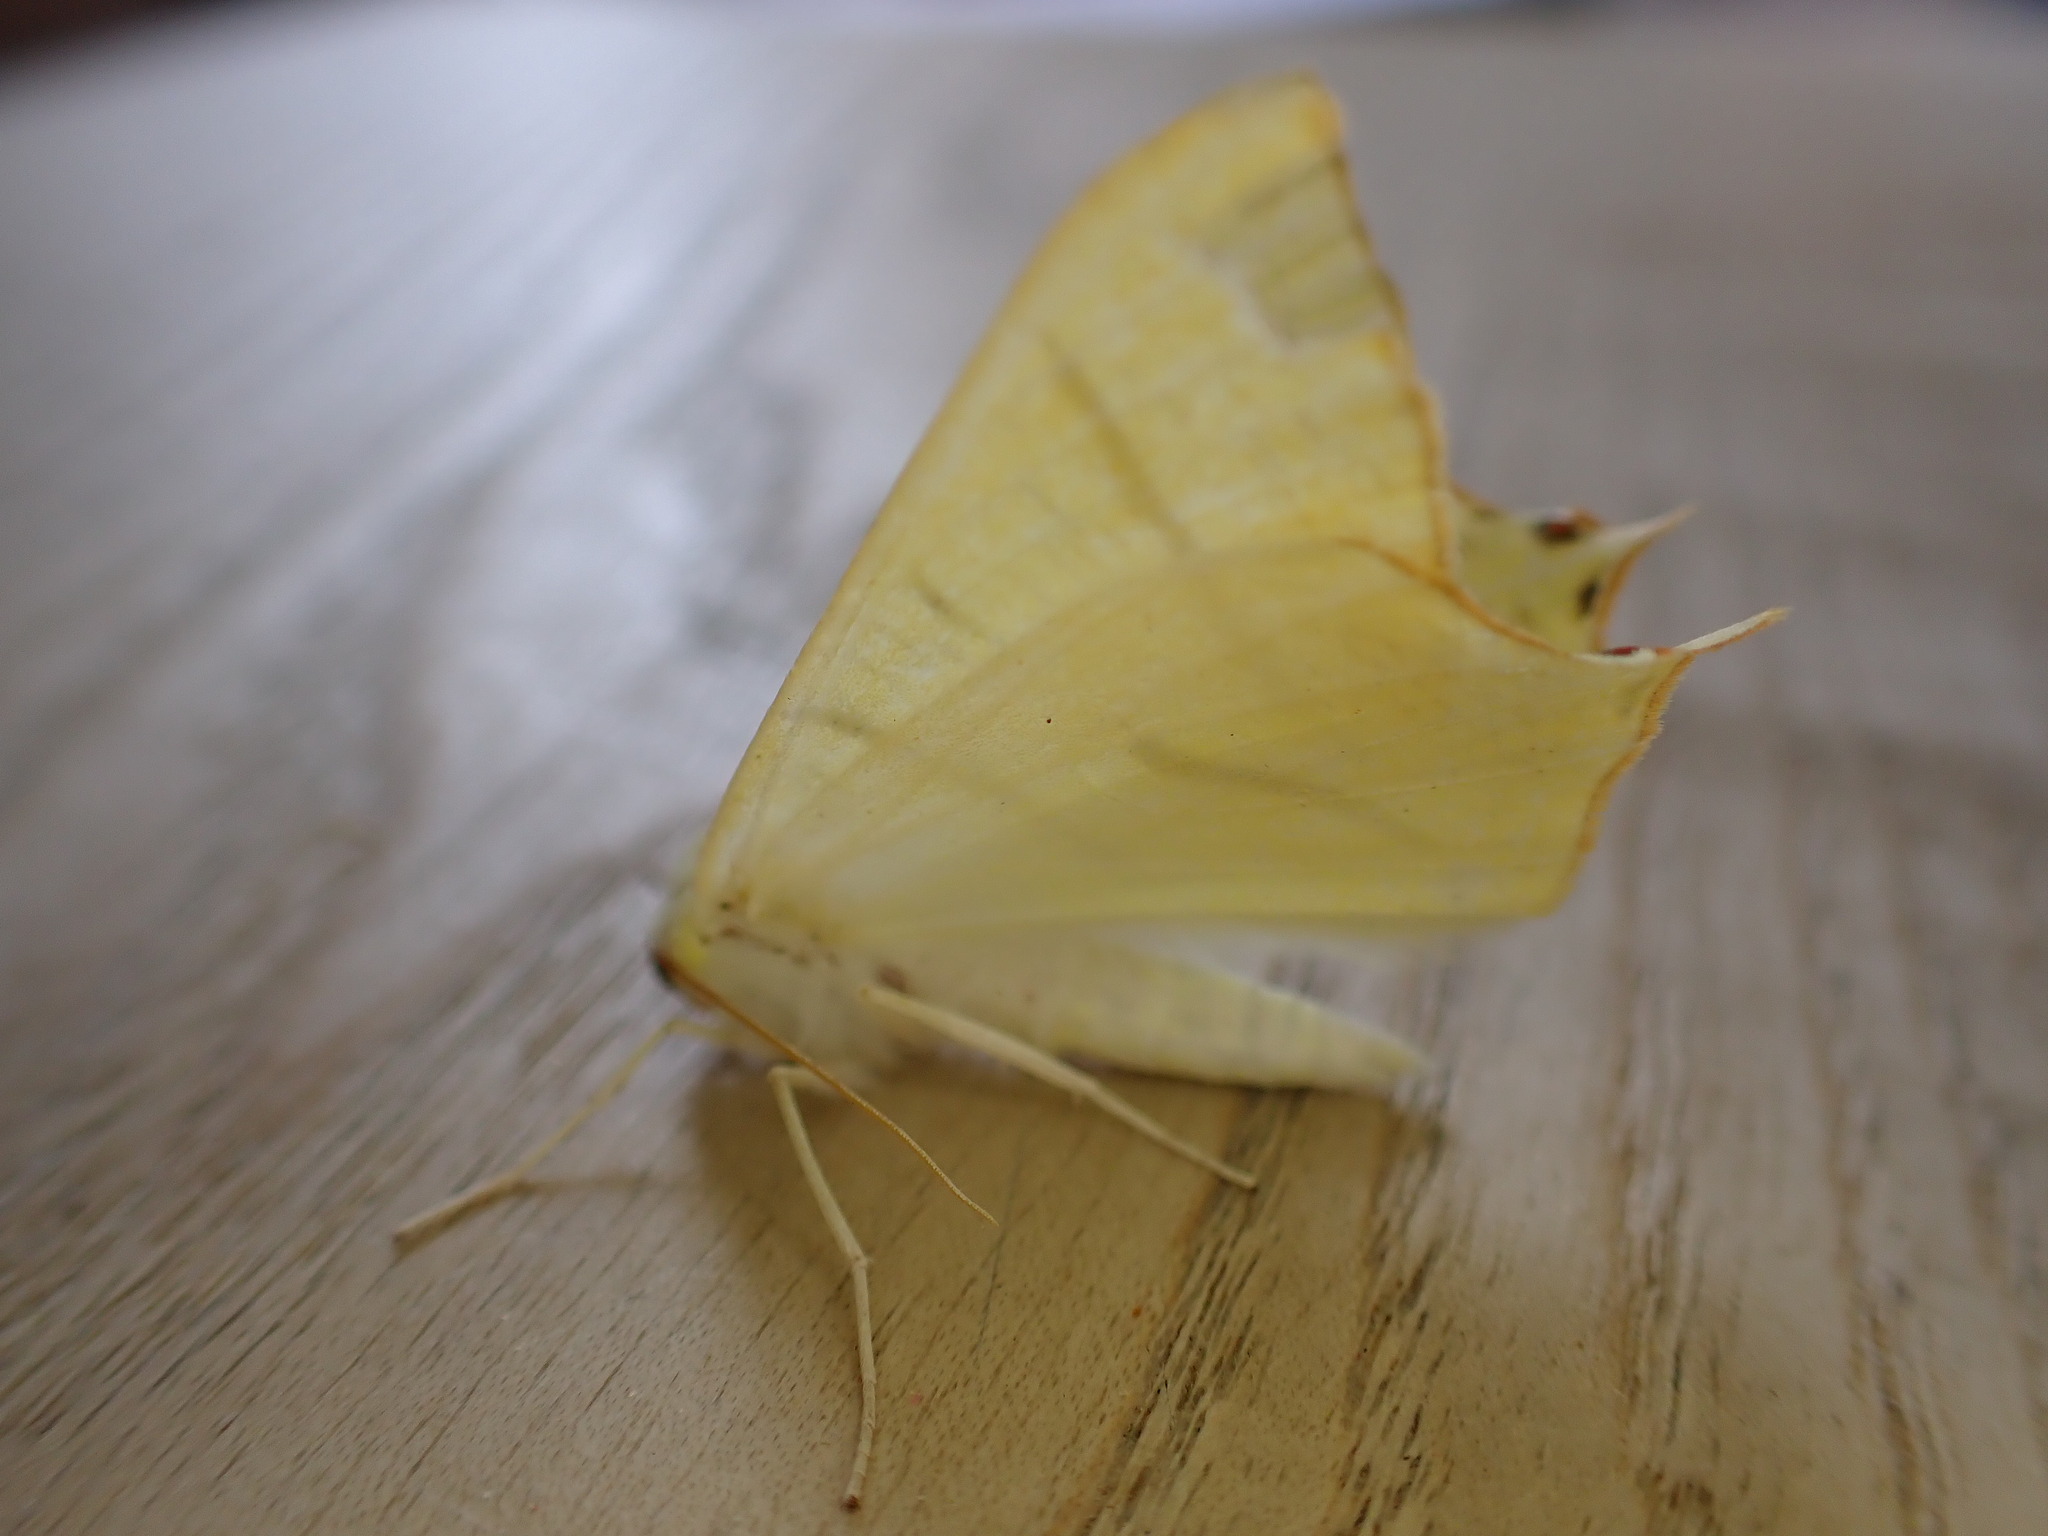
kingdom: Animalia
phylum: Arthropoda
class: Insecta
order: Lepidoptera
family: Geometridae
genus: Ourapteryx
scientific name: Ourapteryx sambucaria
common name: Swallow-tailed moth
